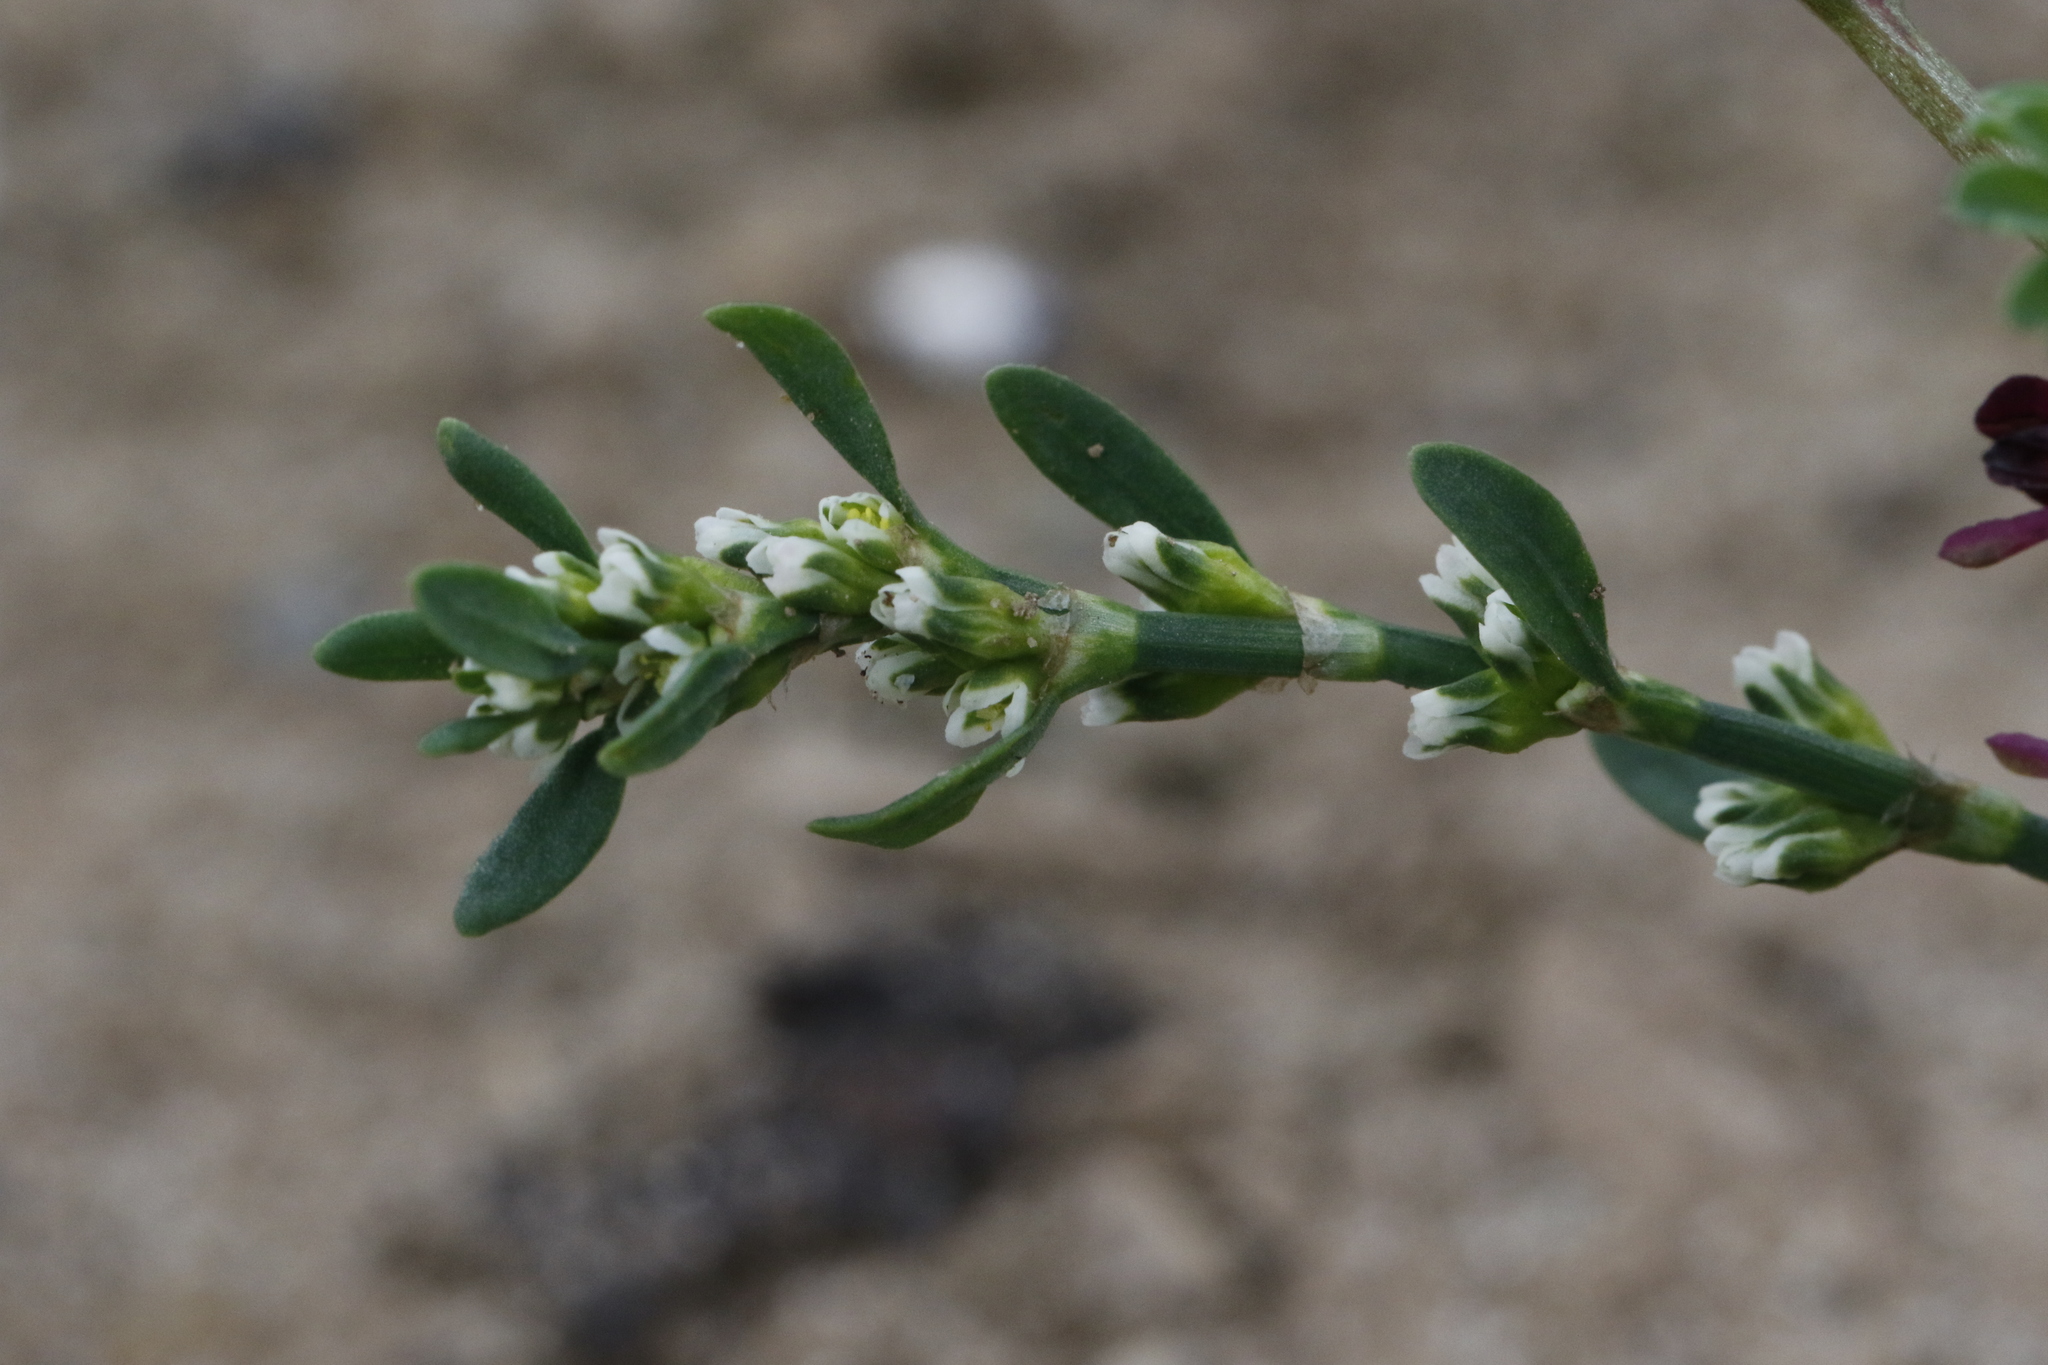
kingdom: Plantae
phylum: Tracheophyta
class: Magnoliopsida
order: Caryophyllales
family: Polygonaceae
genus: Polygonum
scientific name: Polygonum aviculare
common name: Prostrate knotweed
